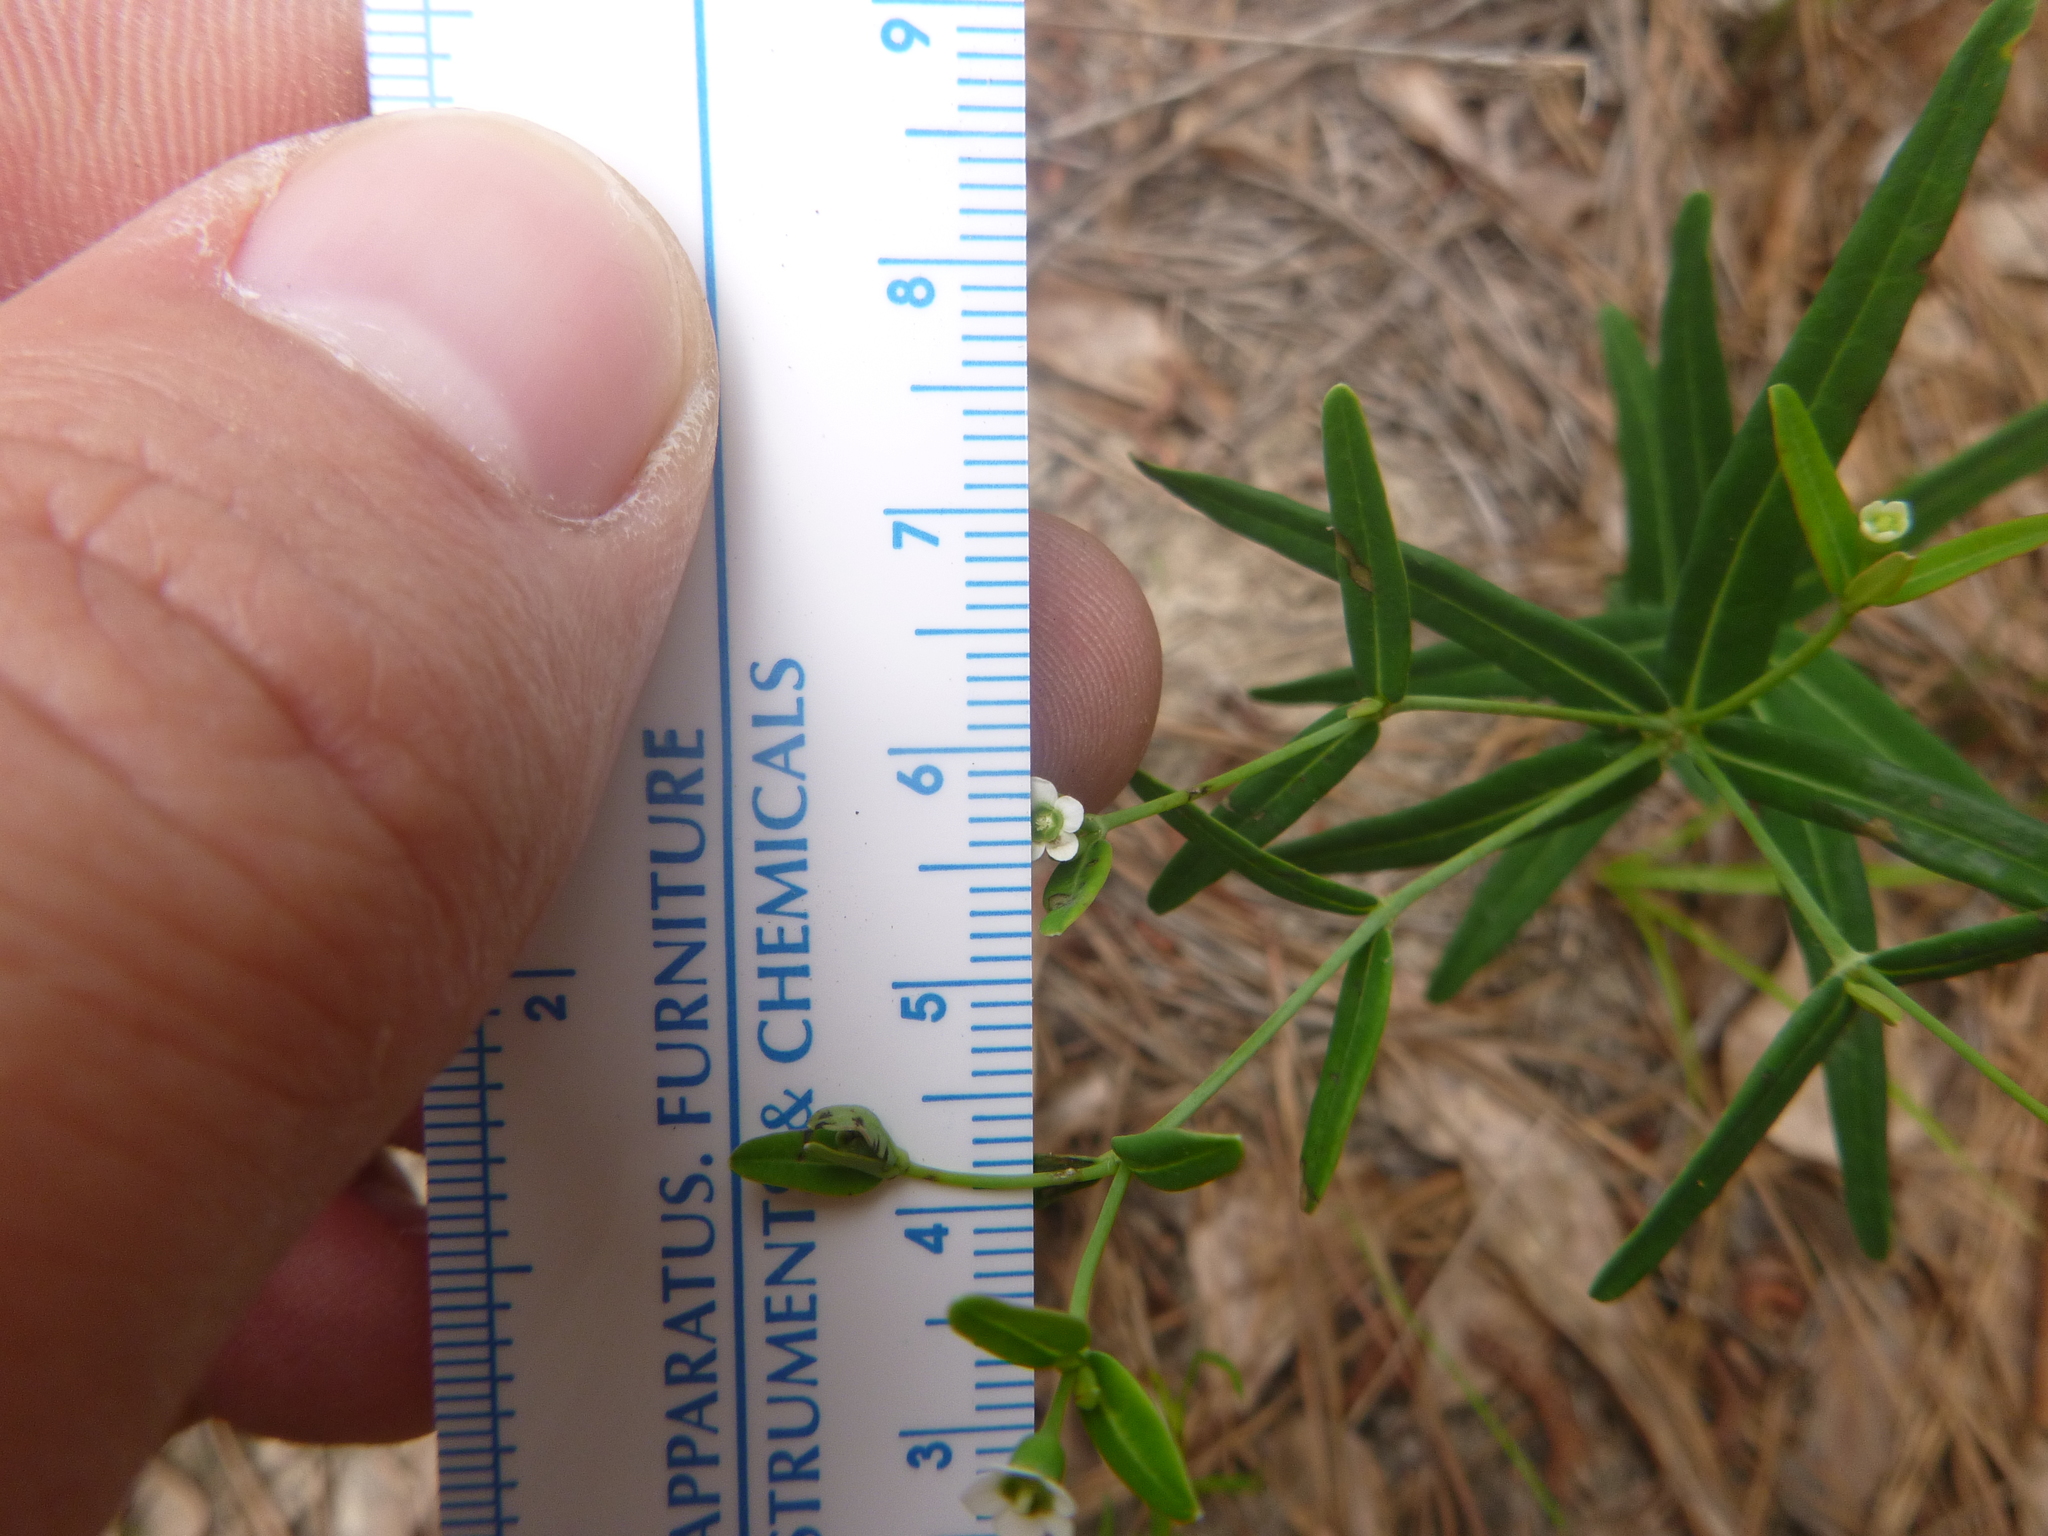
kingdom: Plantae
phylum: Tracheophyta
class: Magnoliopsida
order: Malpighiales
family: Euphorbiaceae
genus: Euphorbia
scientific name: Euphorbia discoidalis
